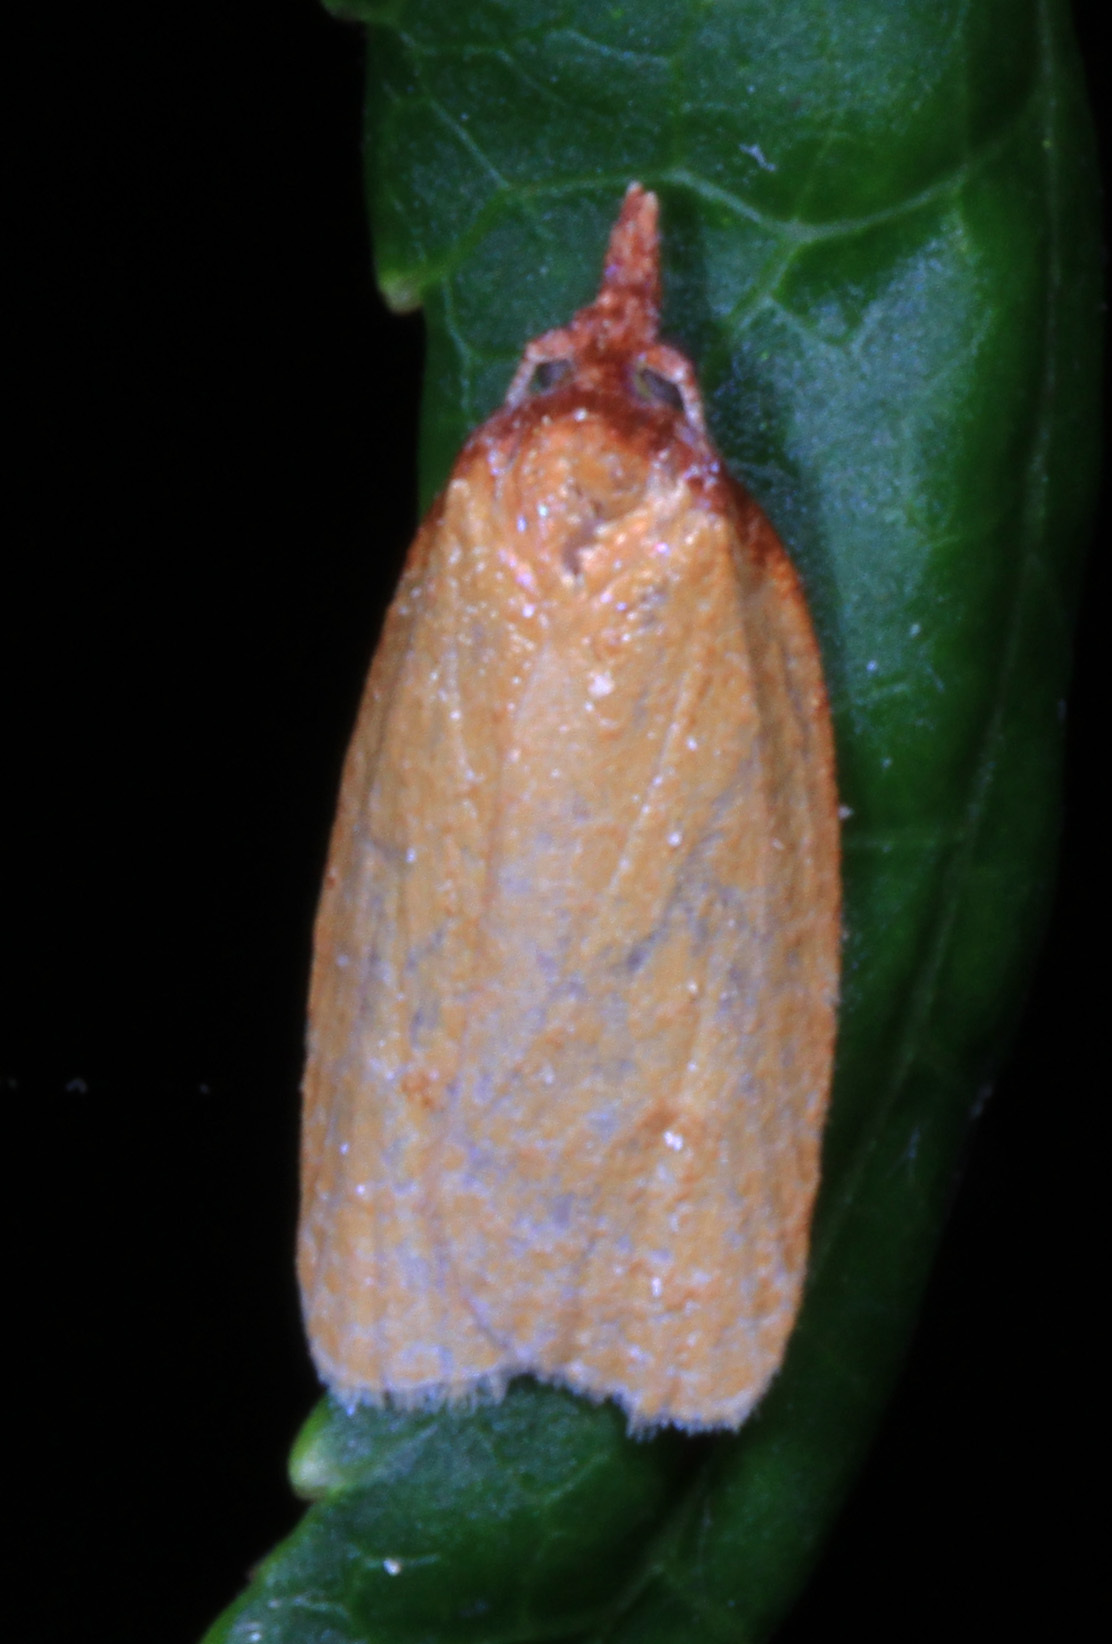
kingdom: Animalia
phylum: Arthropoda
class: Insecta
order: Lepidoptera
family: Tortricidae
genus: Sparganothis
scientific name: Sparganothis distincta
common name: Distinct sparganothis moth
